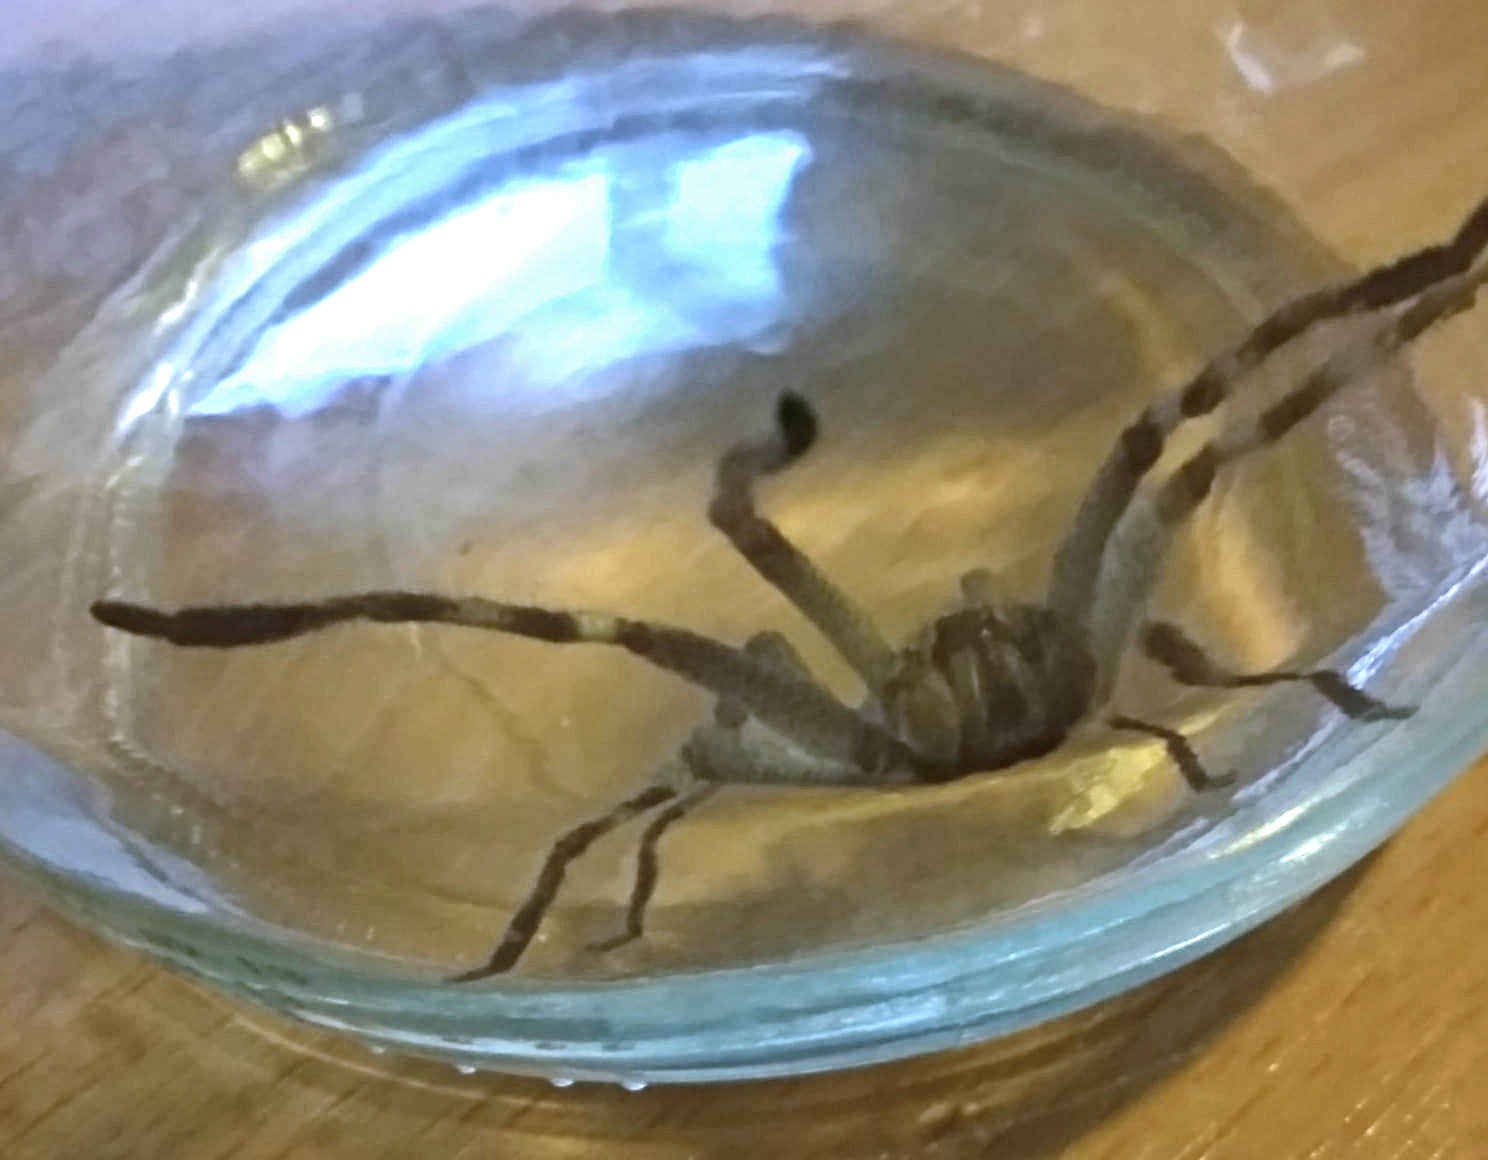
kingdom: Animalia
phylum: Arthropoda
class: Arachnida
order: Araneae
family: Sparassidae
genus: Isopeda
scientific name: Isopeda leishmanni
